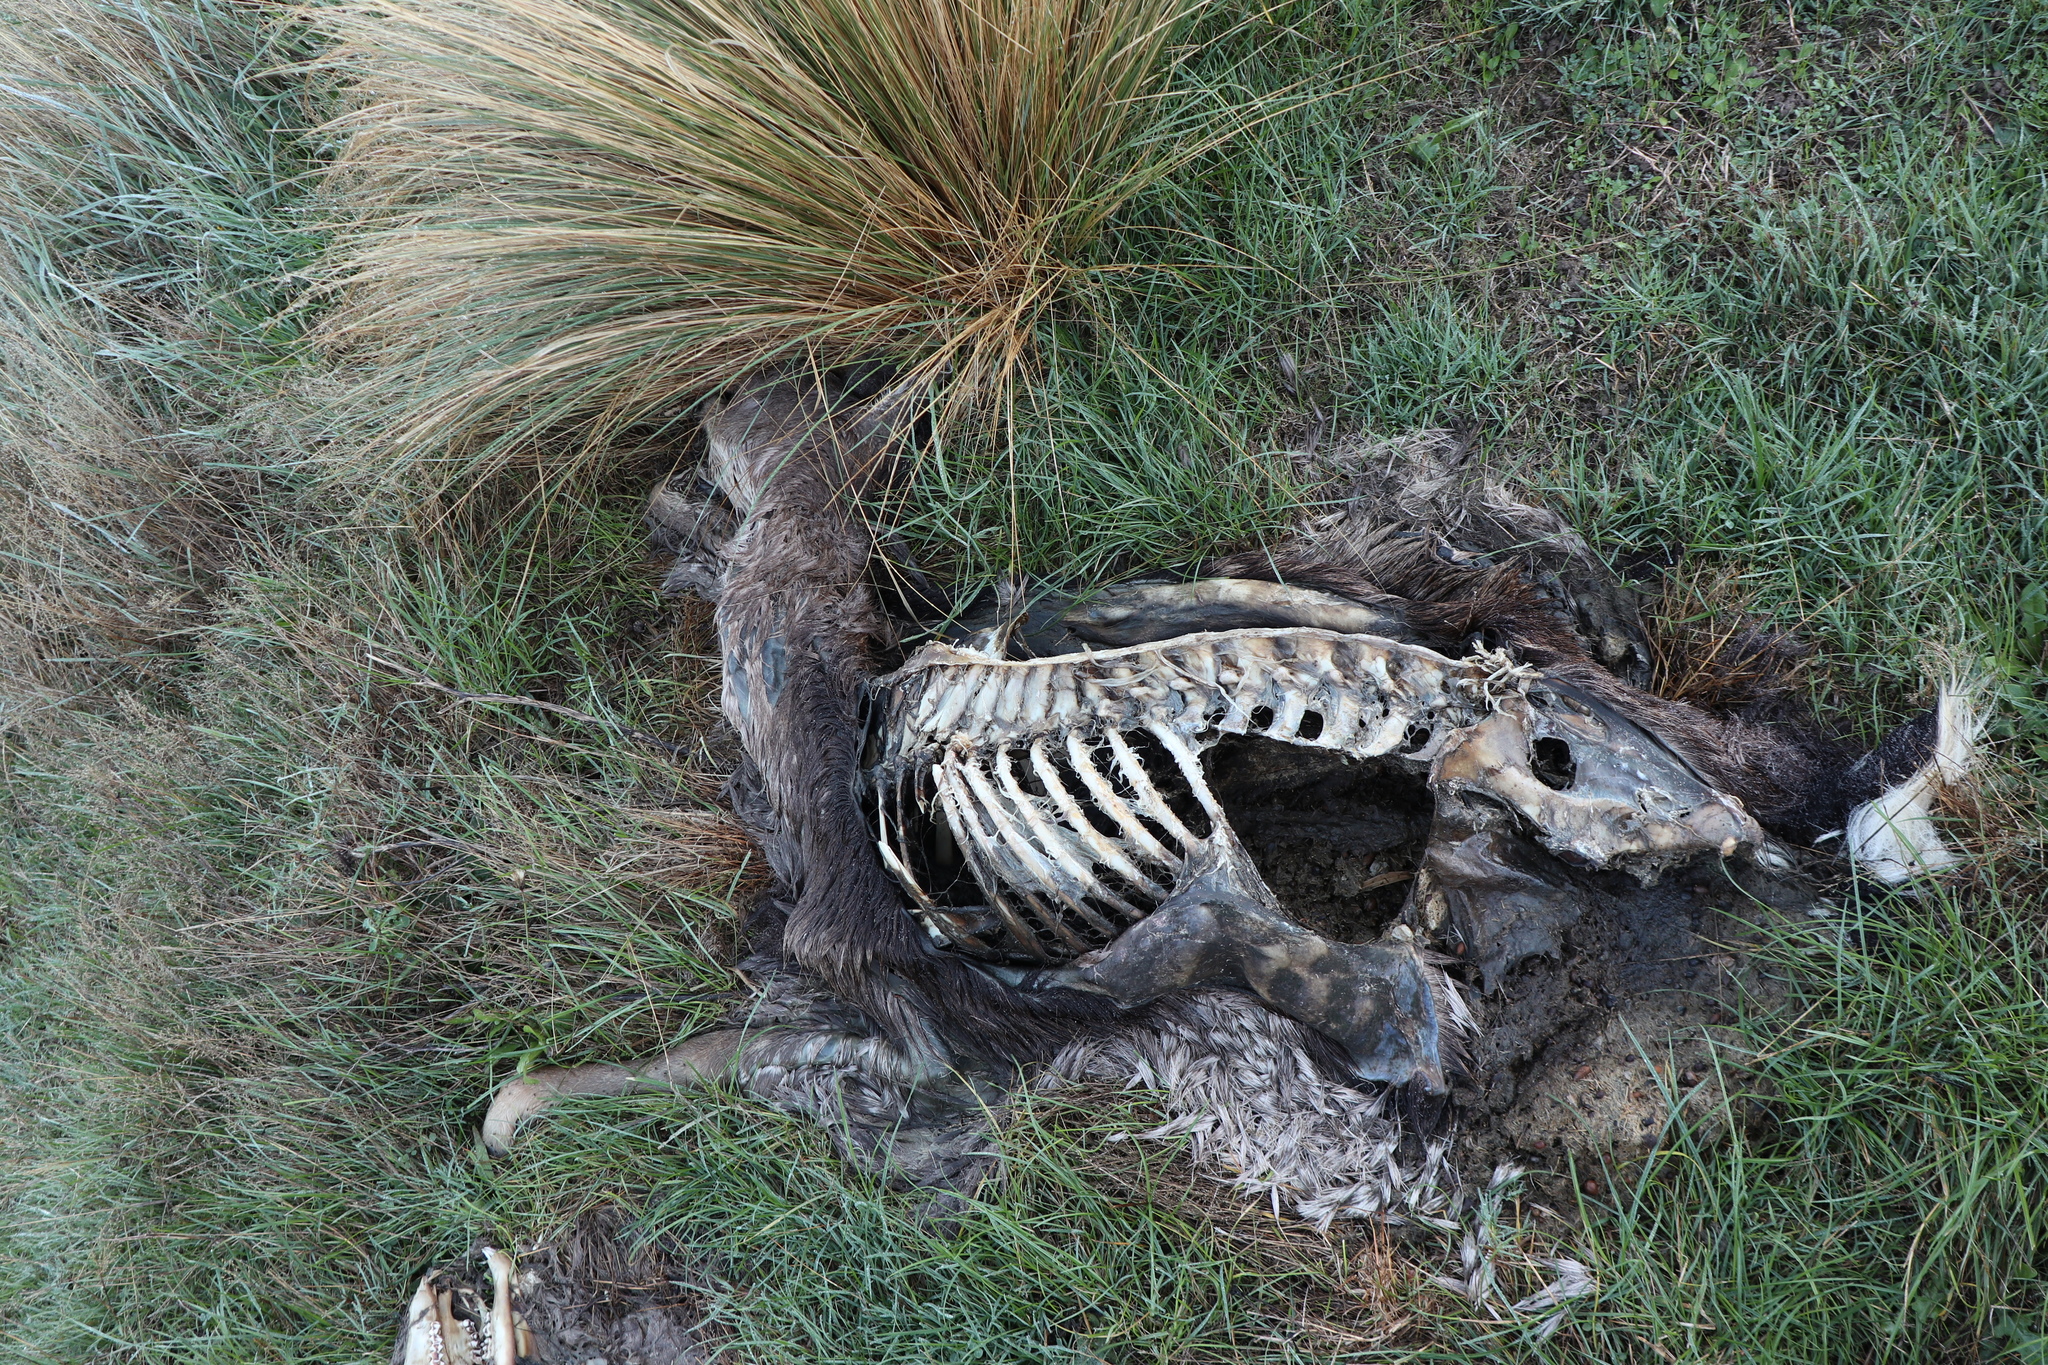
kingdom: Animalia
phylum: Chordata
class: Mammalia
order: Artiodactyla
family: Cervidae
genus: Cervus
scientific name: Cervus elaphus
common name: Red deer
